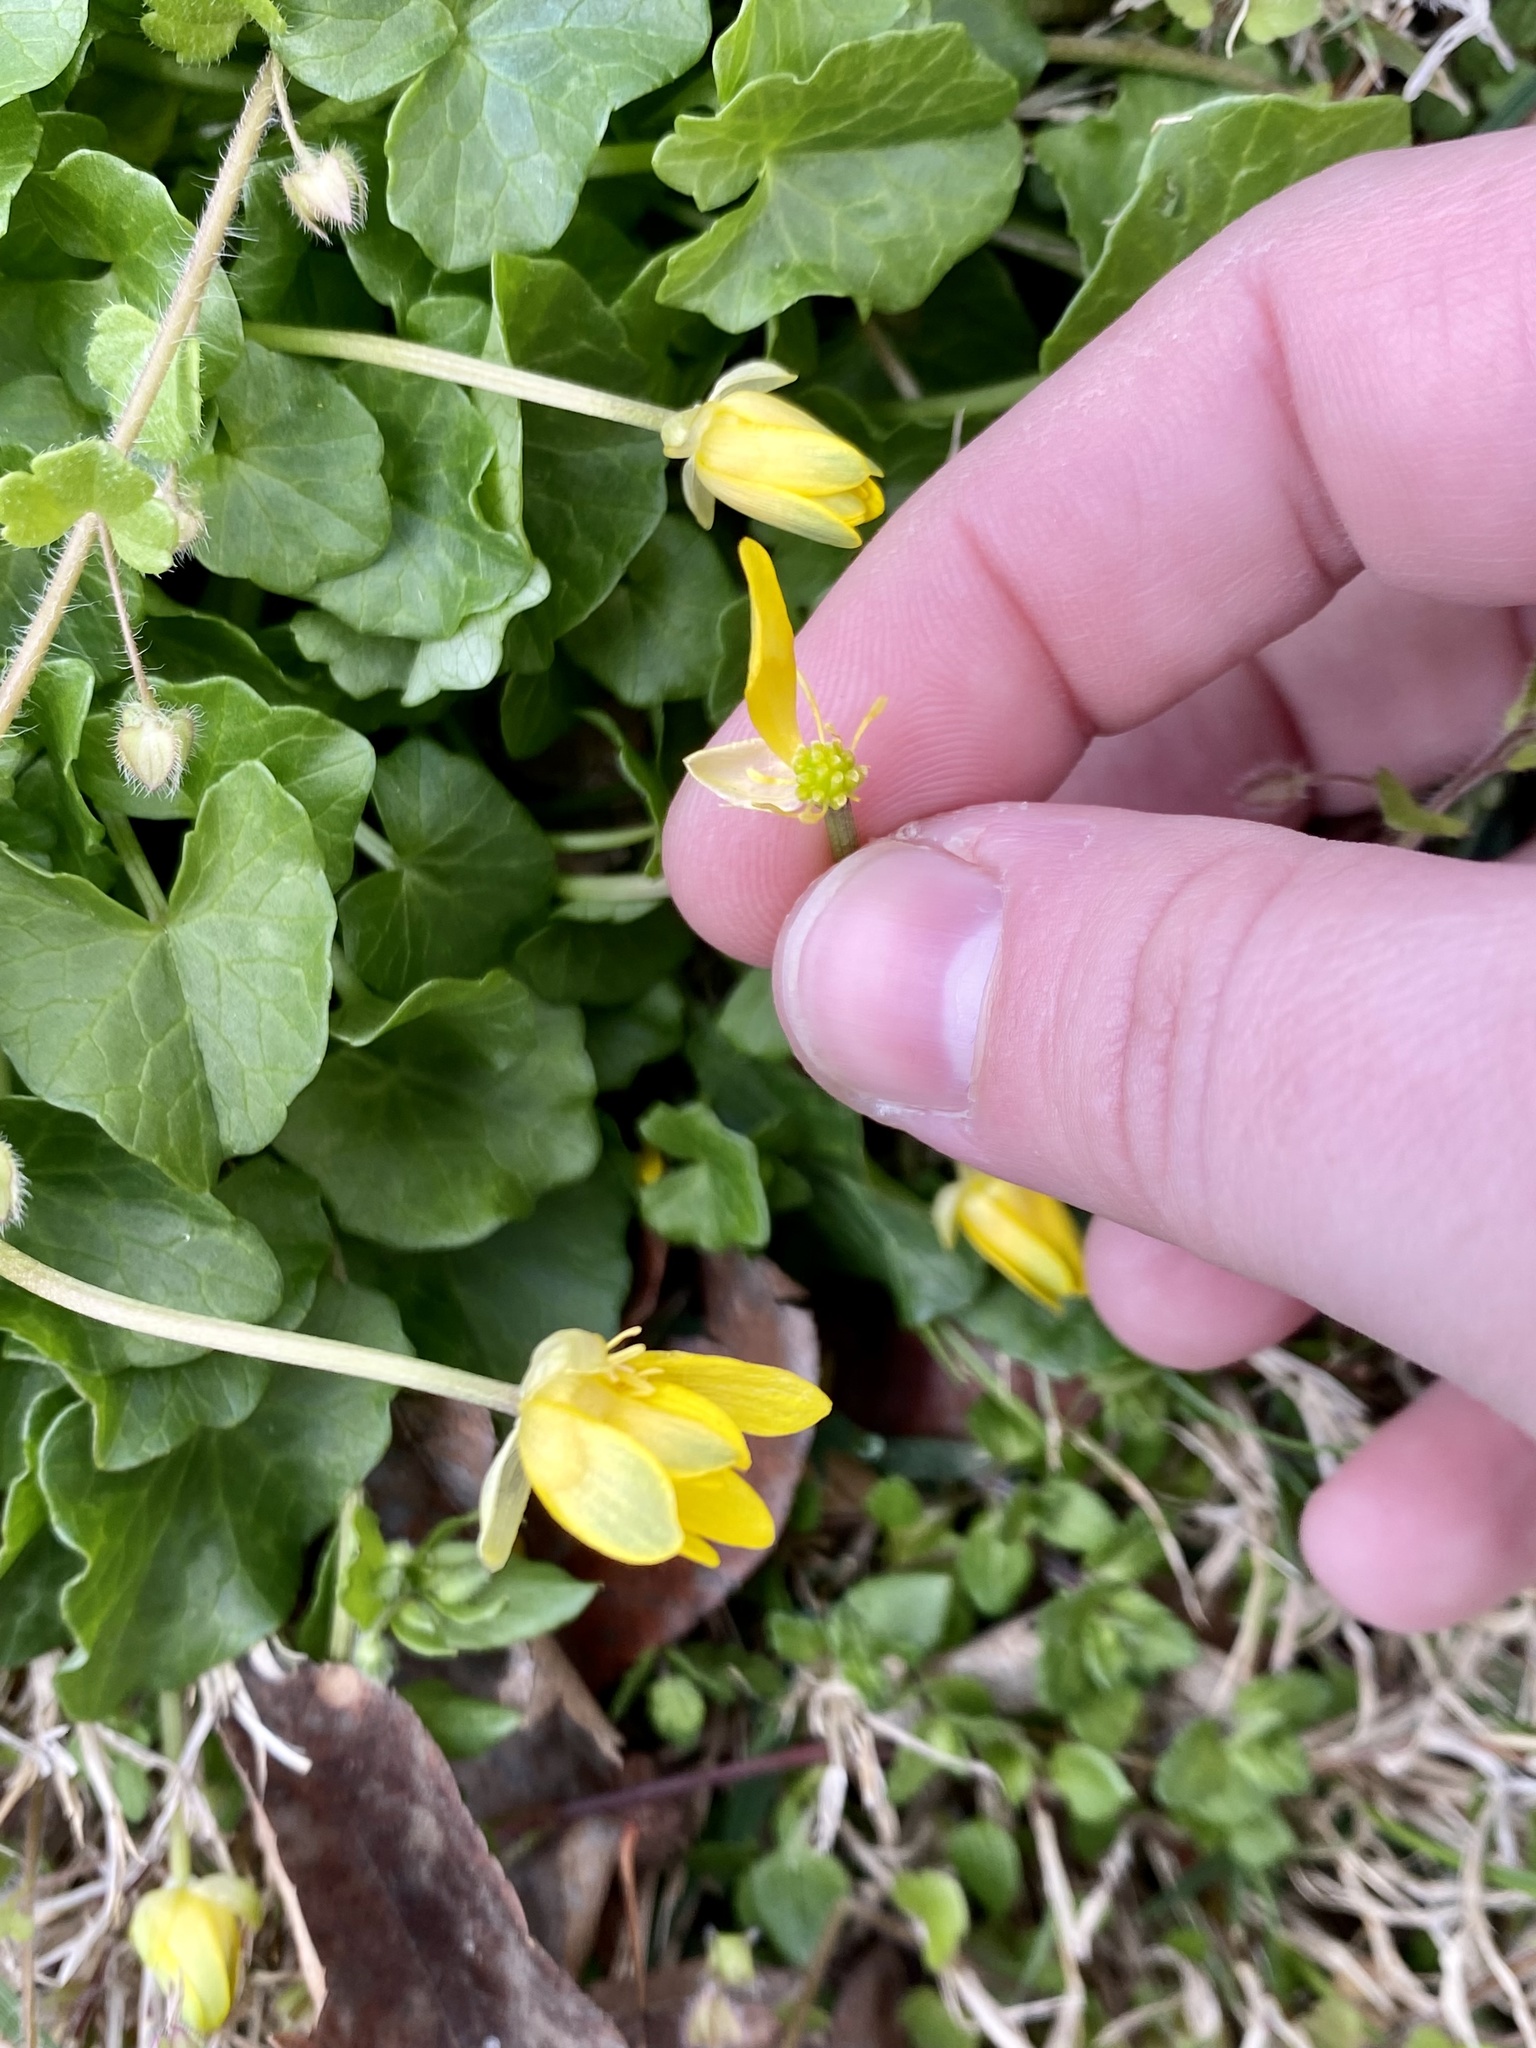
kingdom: Plantae
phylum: Tracheophyta
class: Magnoliopsida
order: Ranunculales
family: Ranunculaceae
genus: Ficaria
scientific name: Ficaria verna
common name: Lesser celandine
